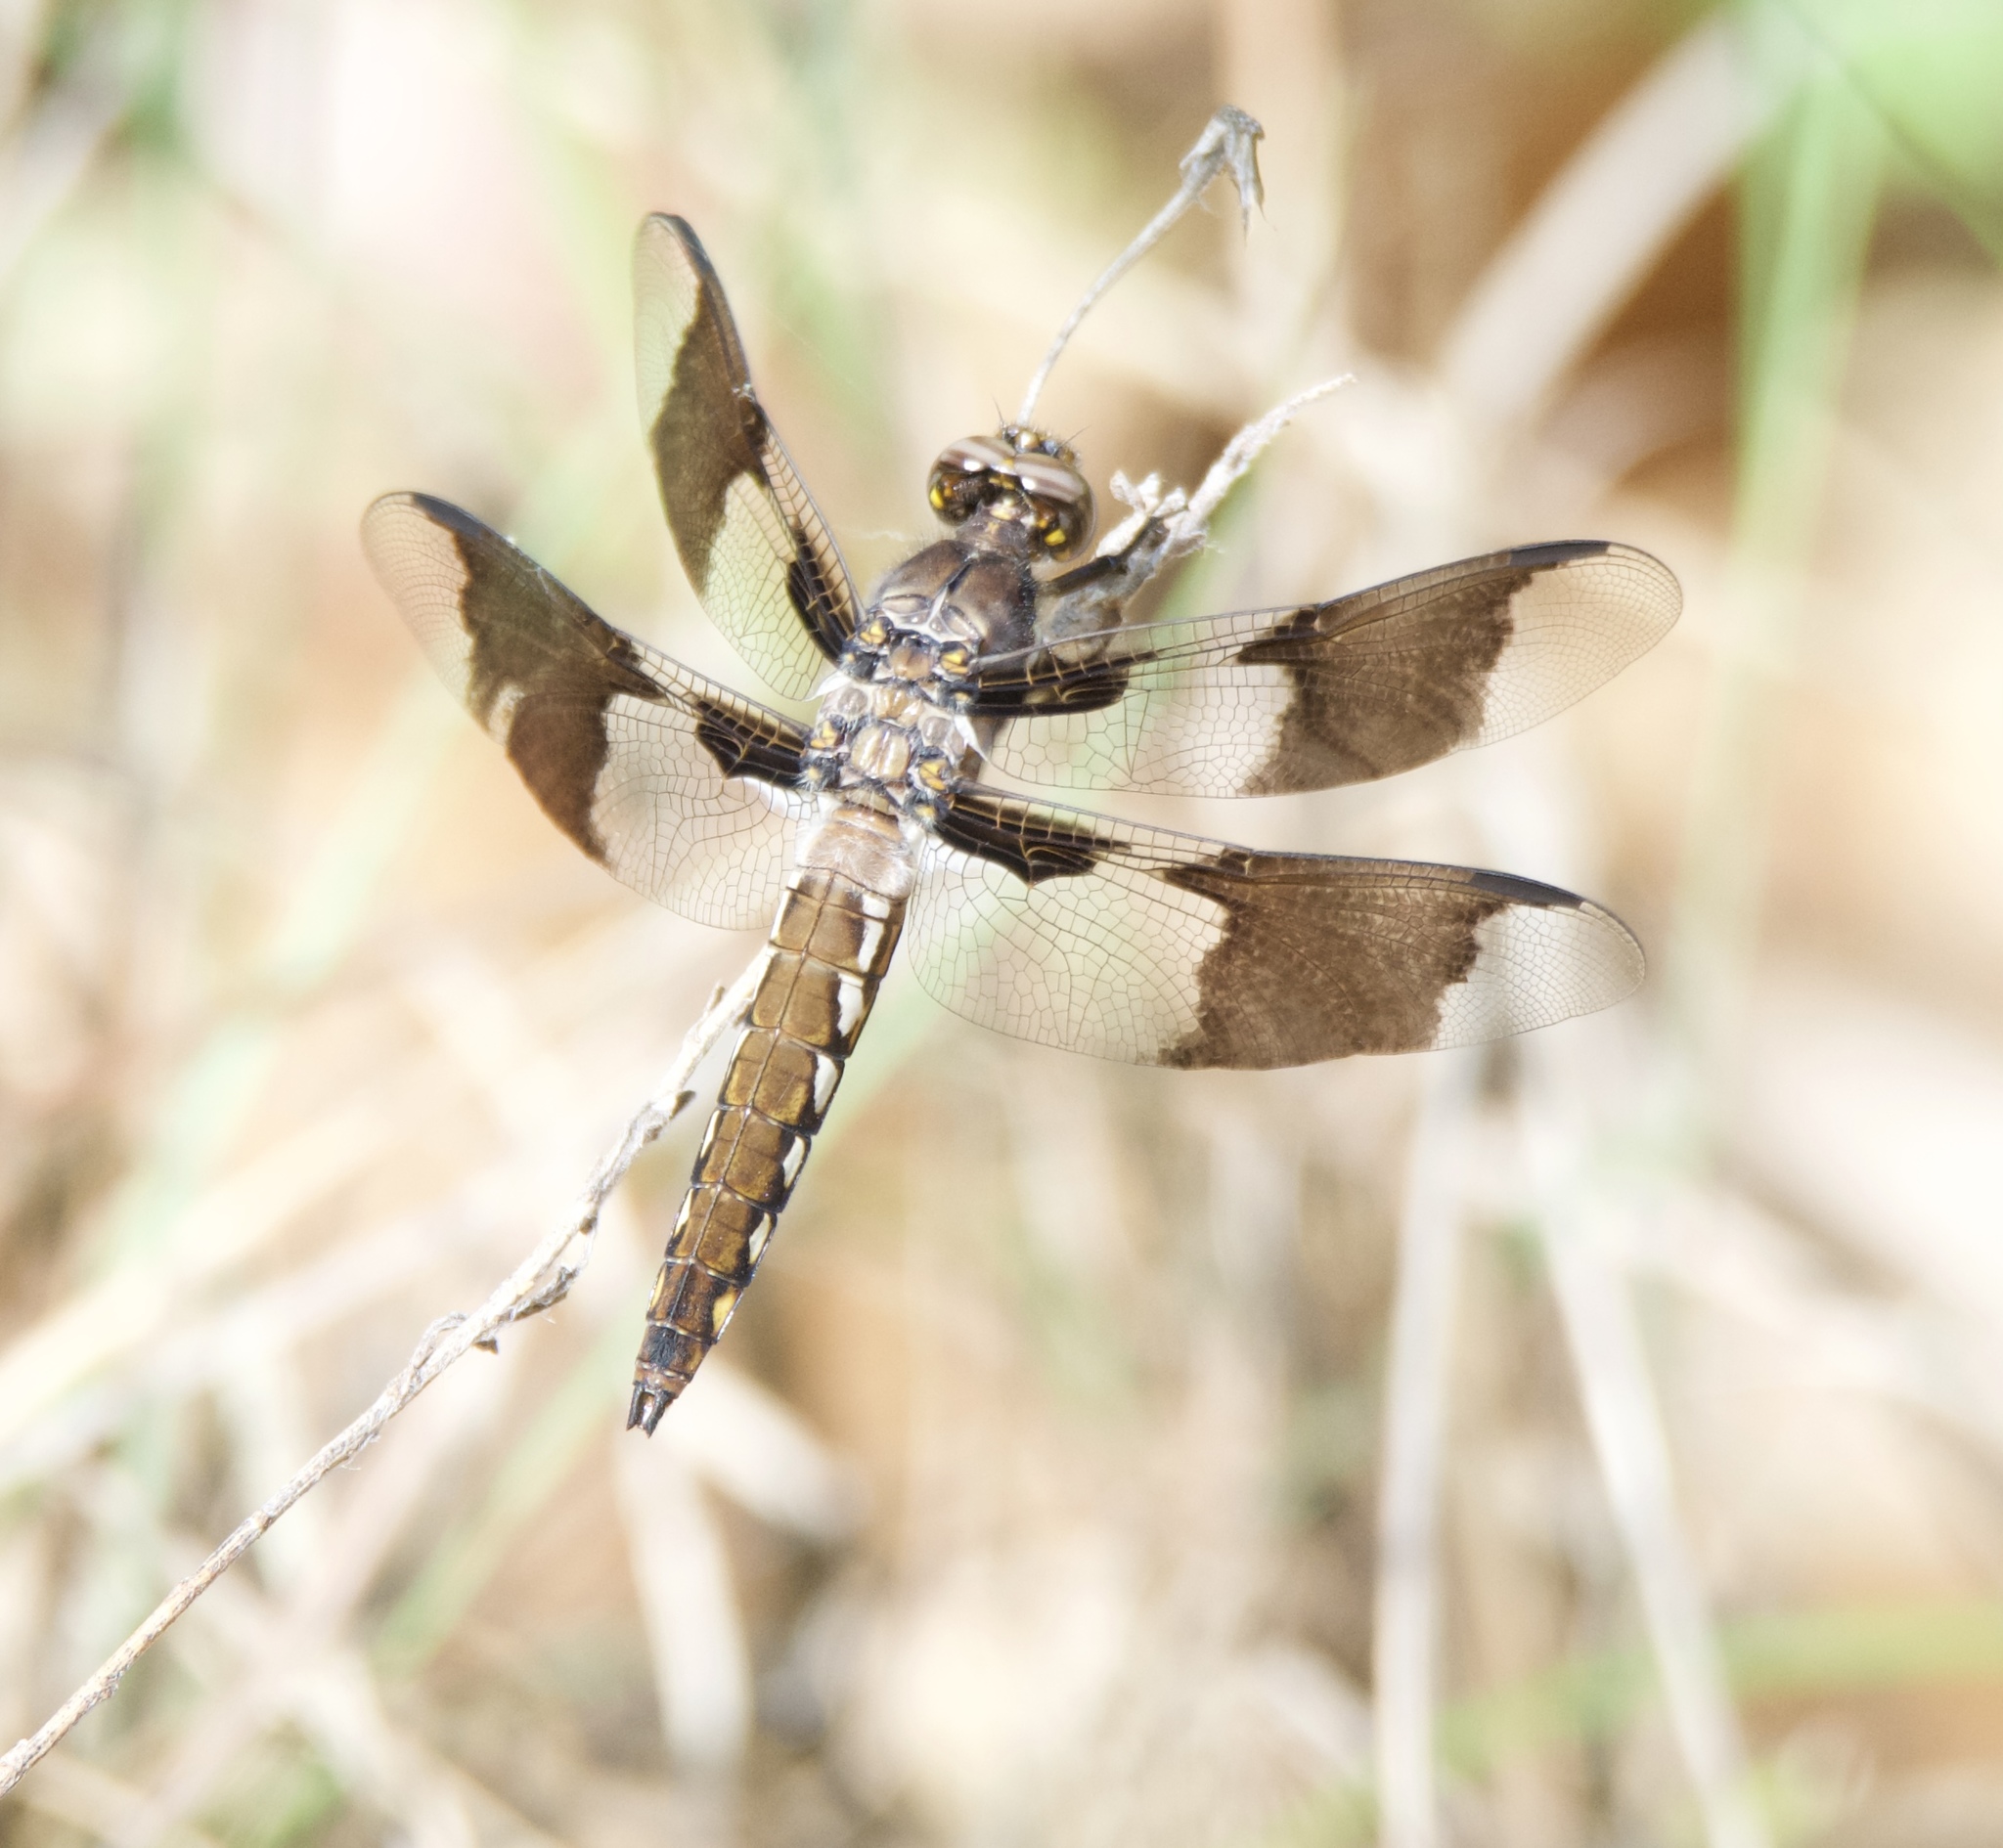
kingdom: Animalia
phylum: Arthropoda
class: Insecta
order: Odonata
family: Libellulidae
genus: Plathemis
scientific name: Plathemis lydia
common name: Common whitetail
